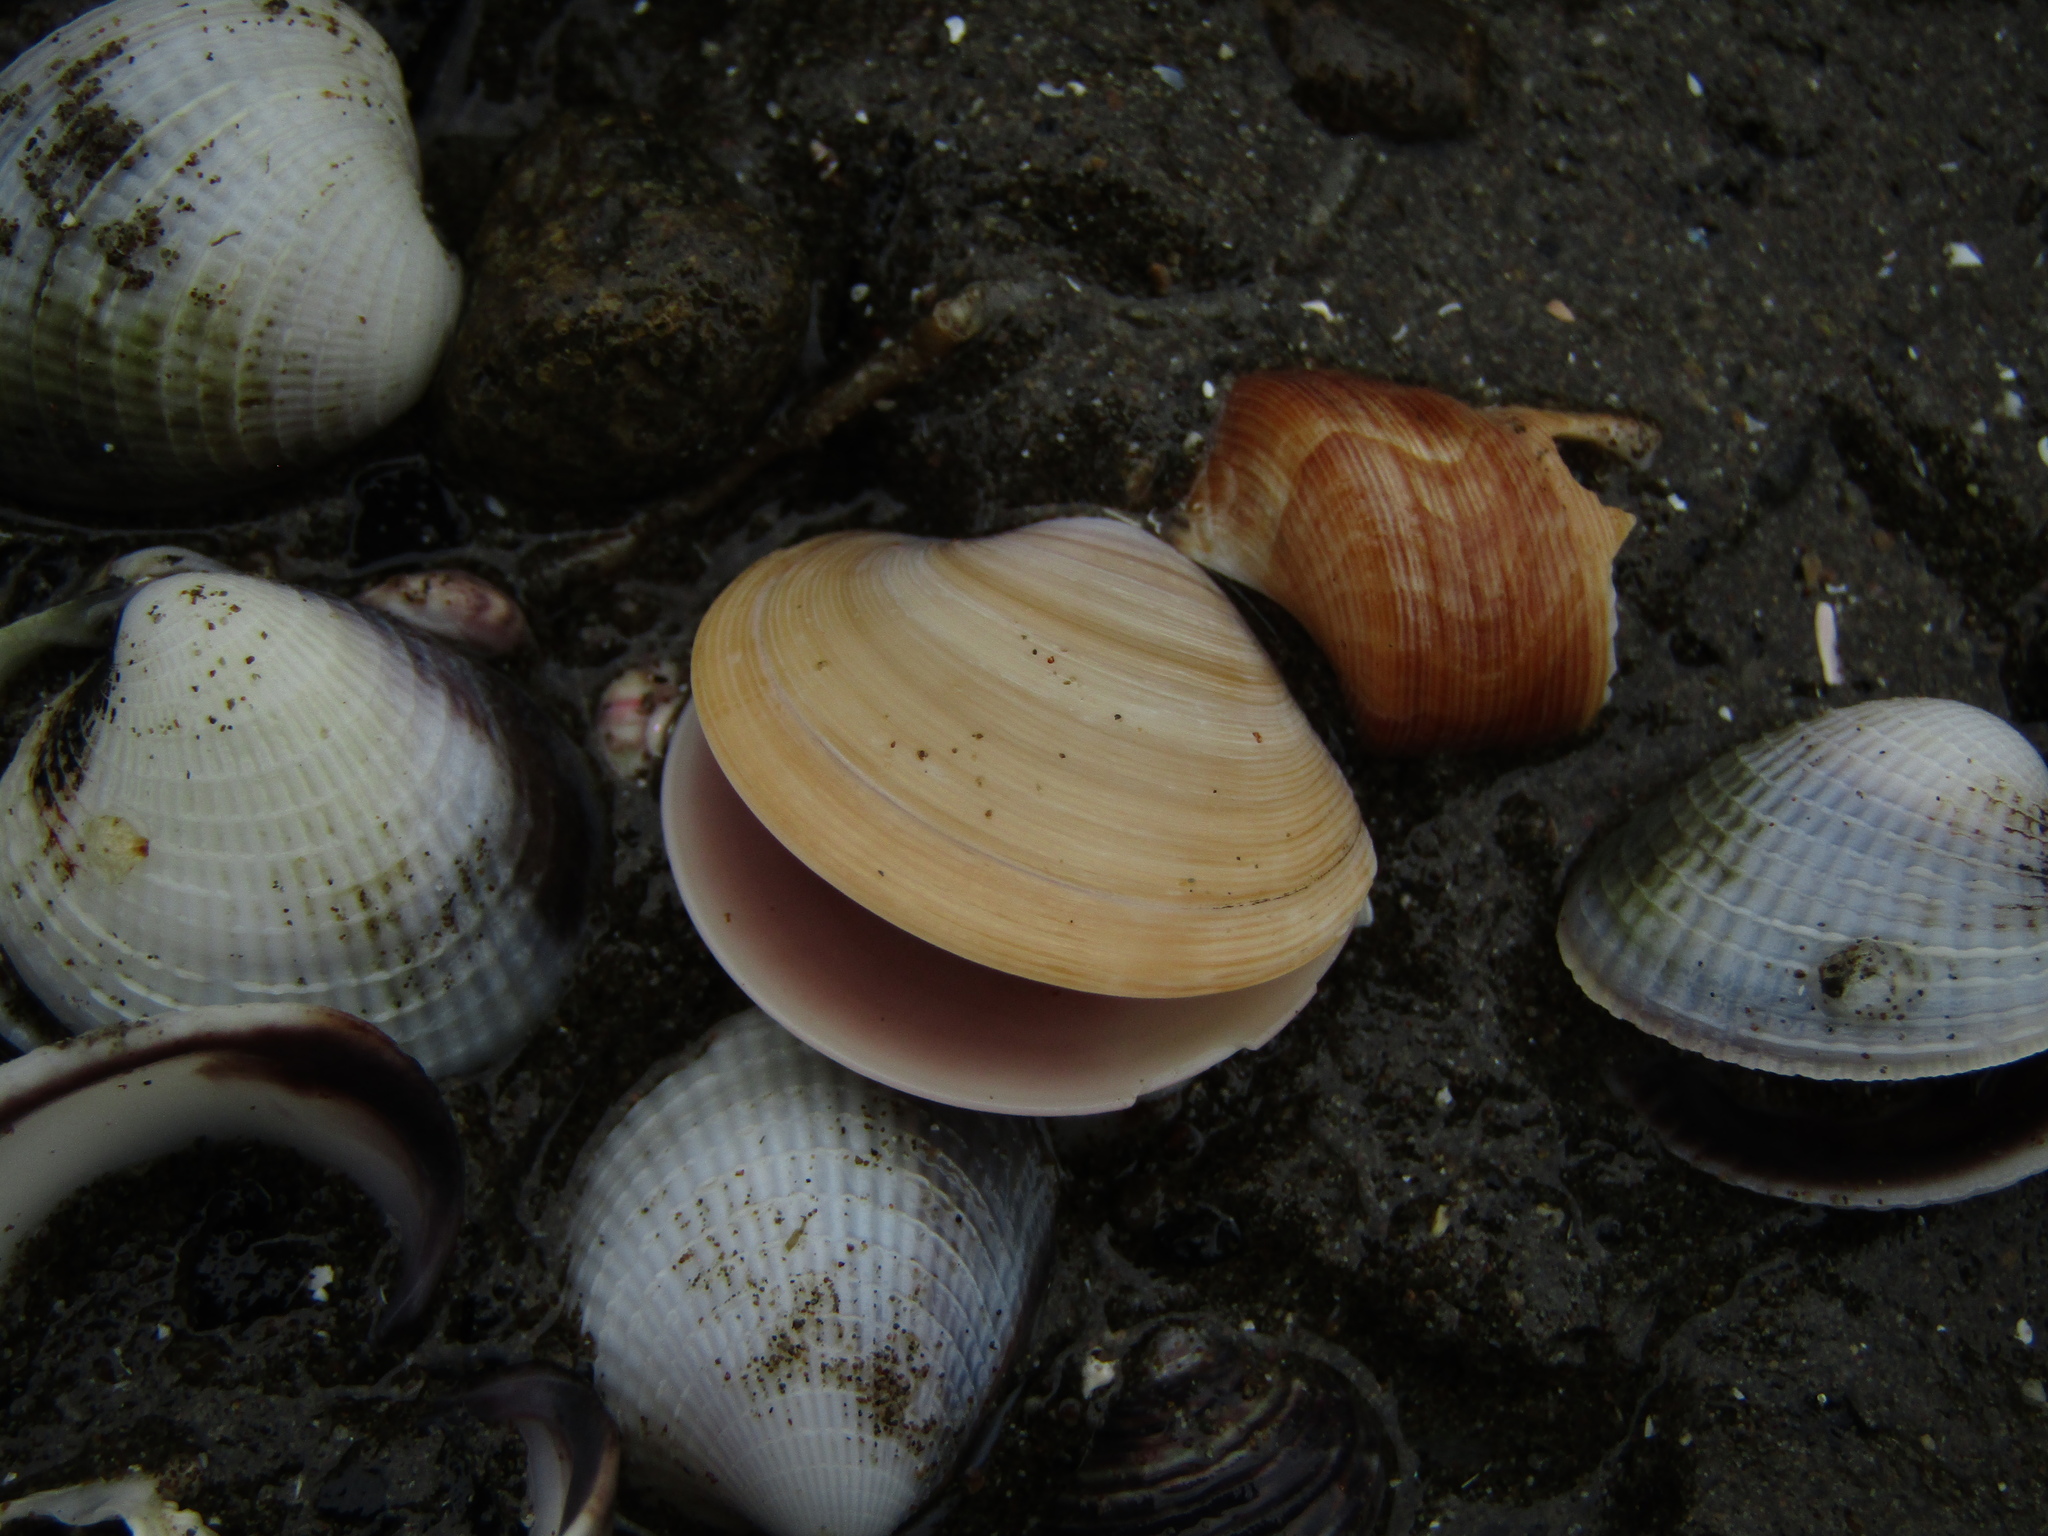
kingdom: Animalia
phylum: Mollusca
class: Bivalvia
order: Venerida
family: Veneridae
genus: Dosinia
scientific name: Dosinia subrosea
